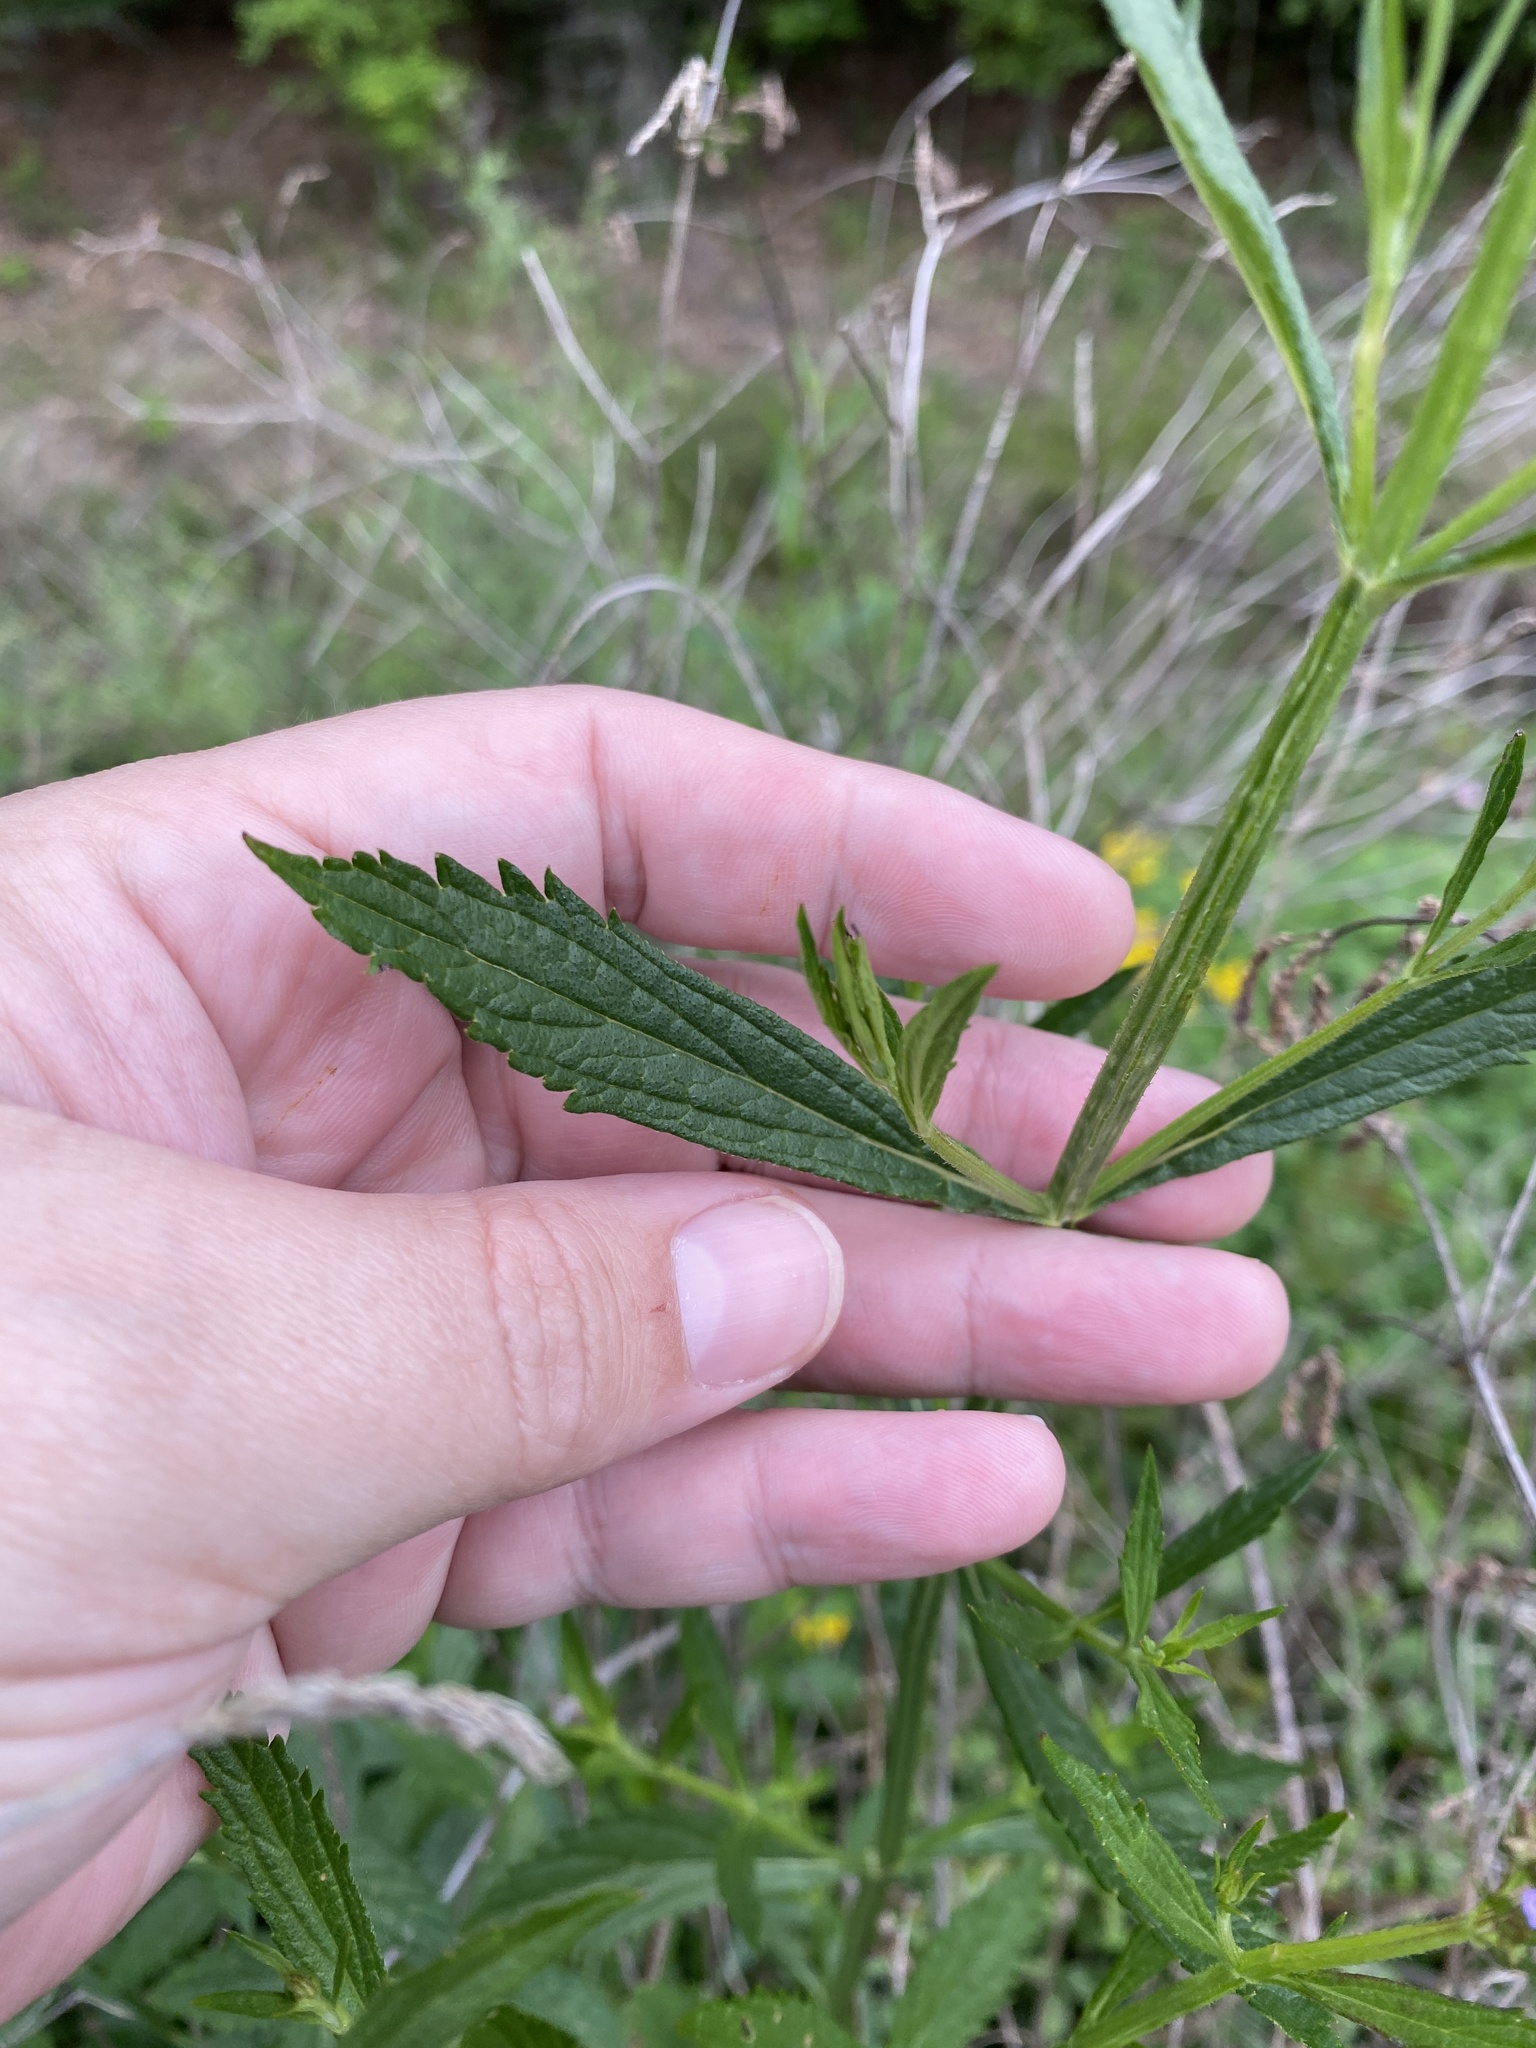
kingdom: Plantae
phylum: Tracheophyta
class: Magnoliopsida
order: Lamiales
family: Verbenaceae
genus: Verbena
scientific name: Verbena brasiliensis
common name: Brazilian vervain
